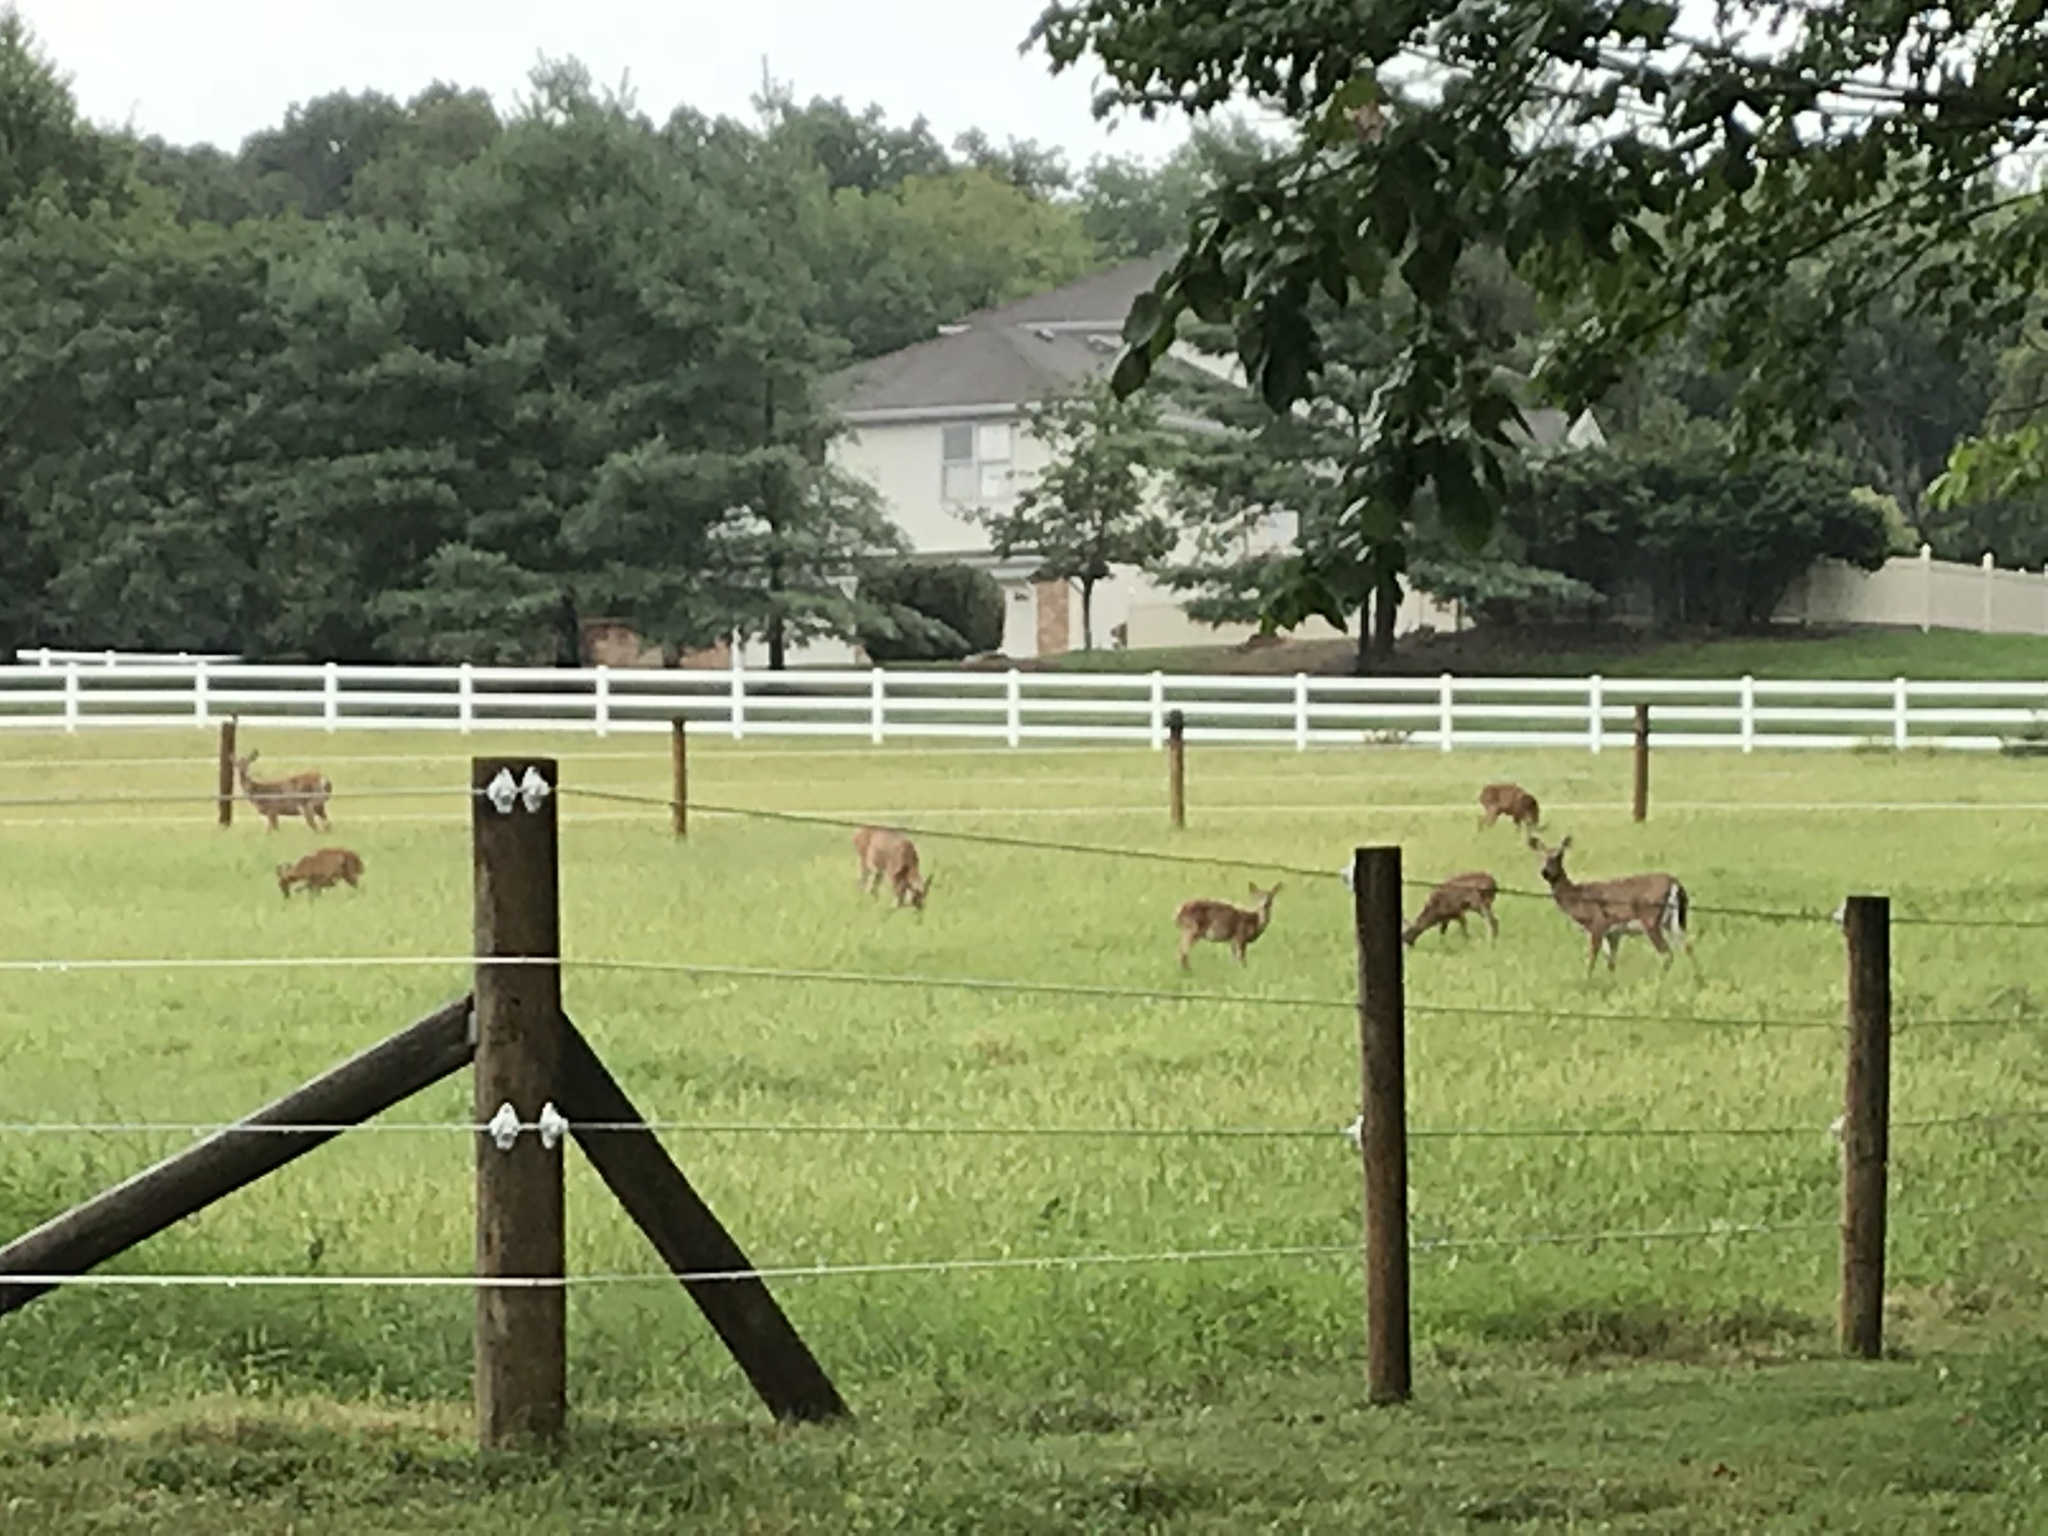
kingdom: Animalia
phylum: Chordata
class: Mammalia
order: Artiodactyla
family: Cervidae
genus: Odocoileus
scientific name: Odocoileus virginianus
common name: White-tailed deer
